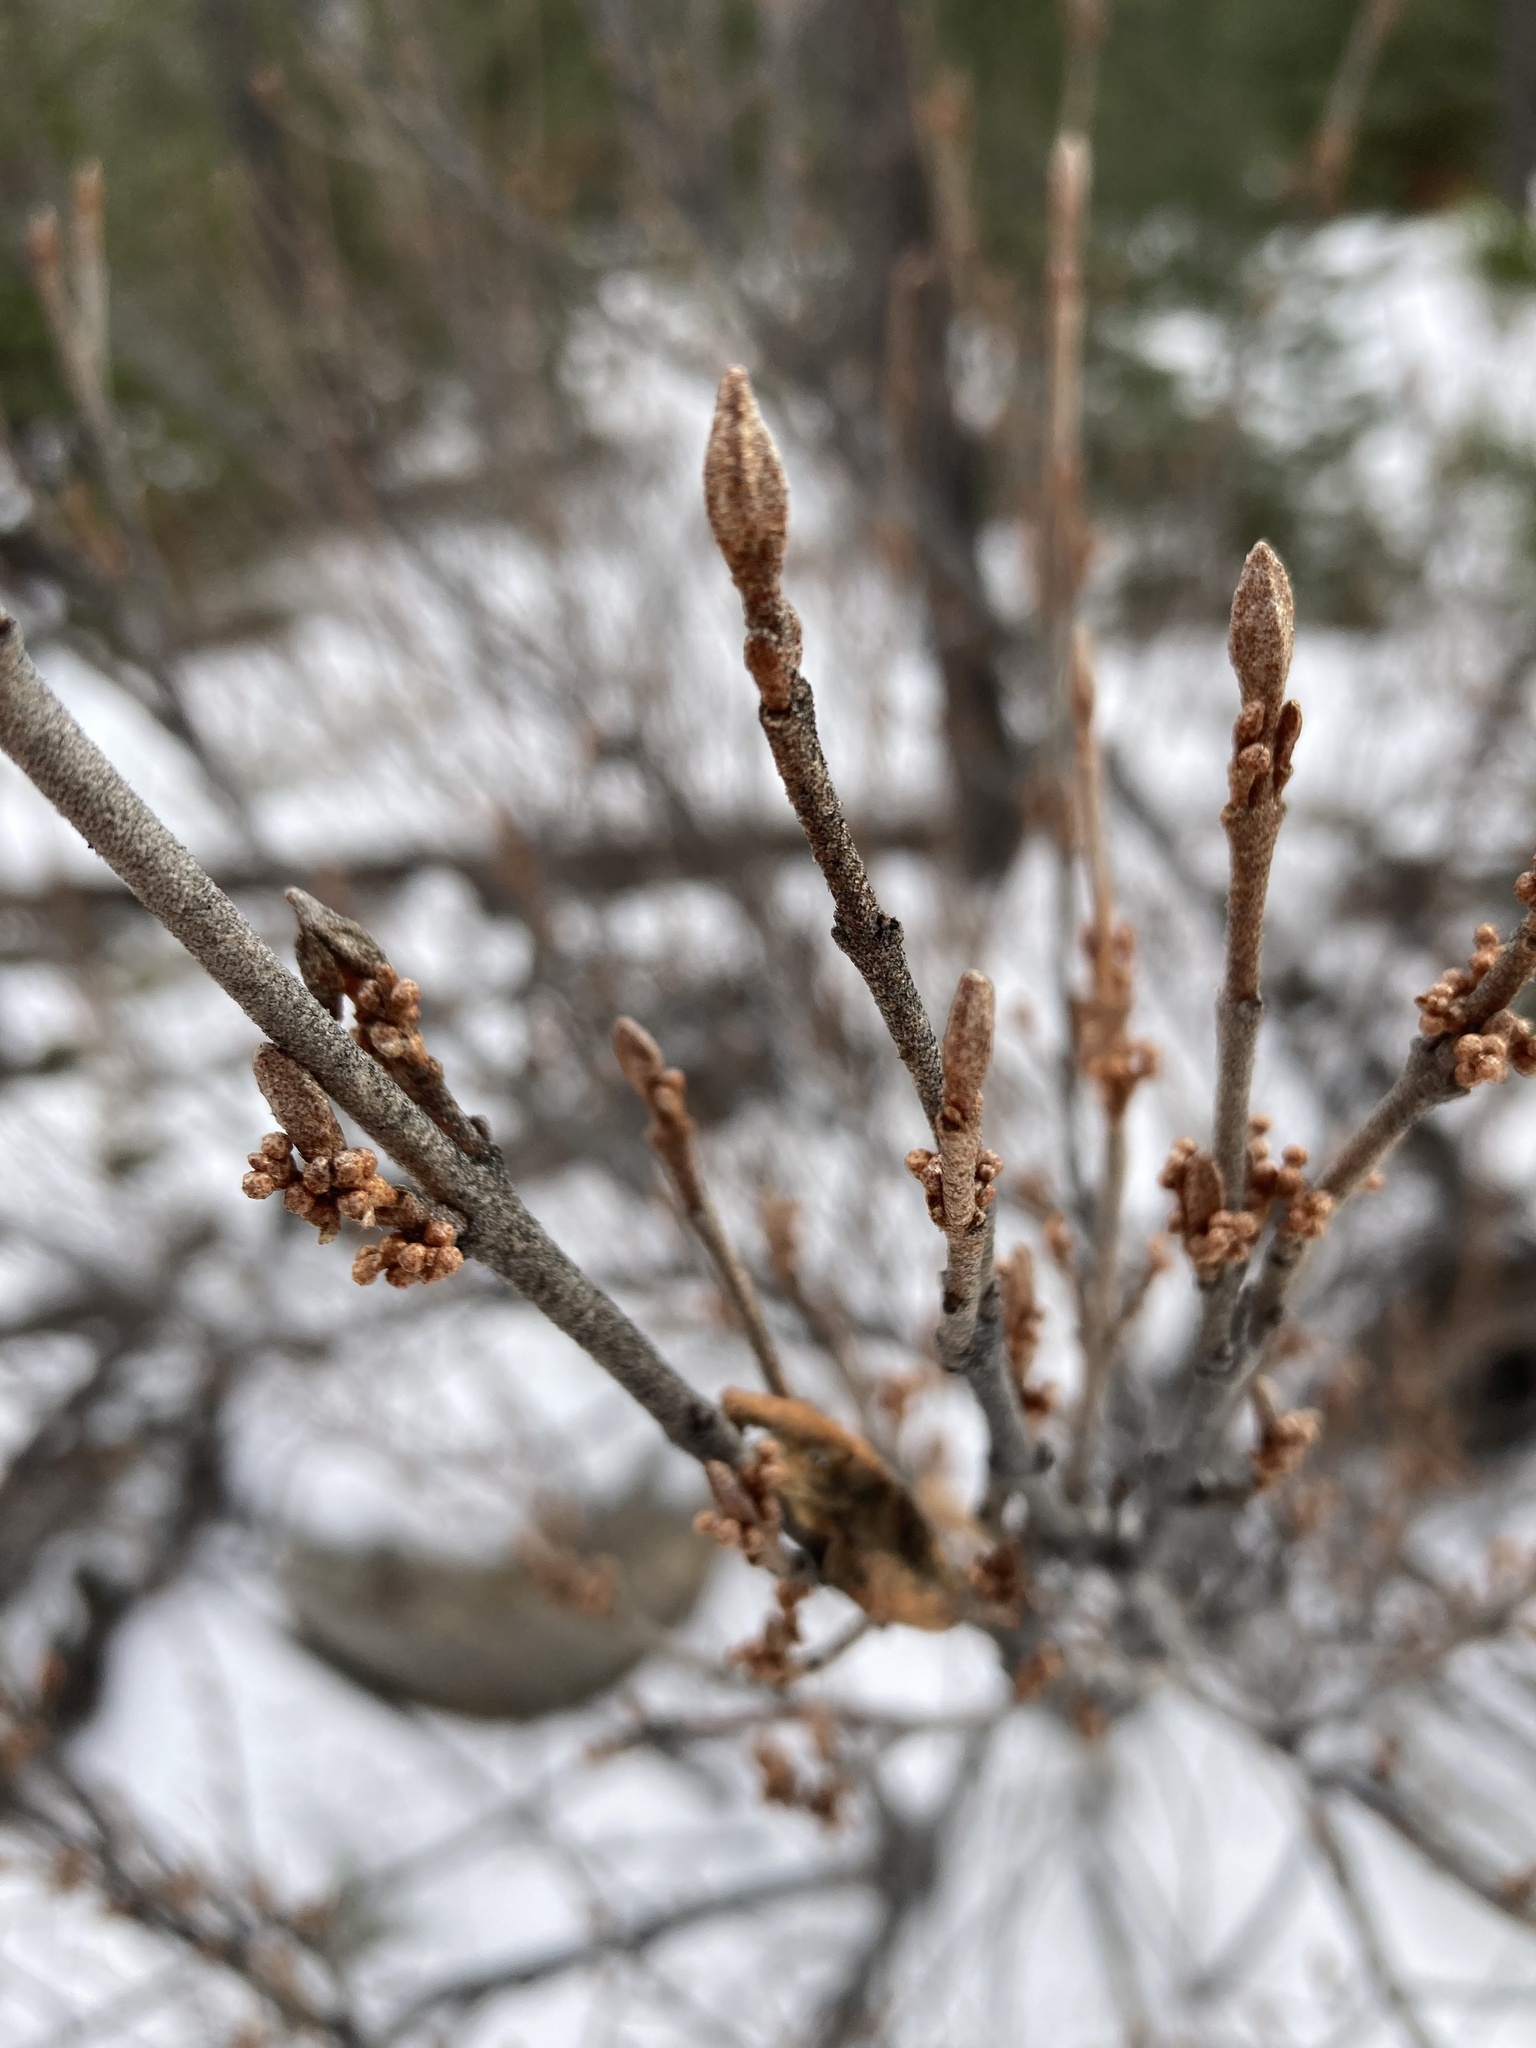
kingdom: Plantae
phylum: Tracheophyta
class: Magnoliopsida
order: Rosales
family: Elaeagnaceae
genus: Shepherdia
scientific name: Shepherdia canadensis
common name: Soapberry
